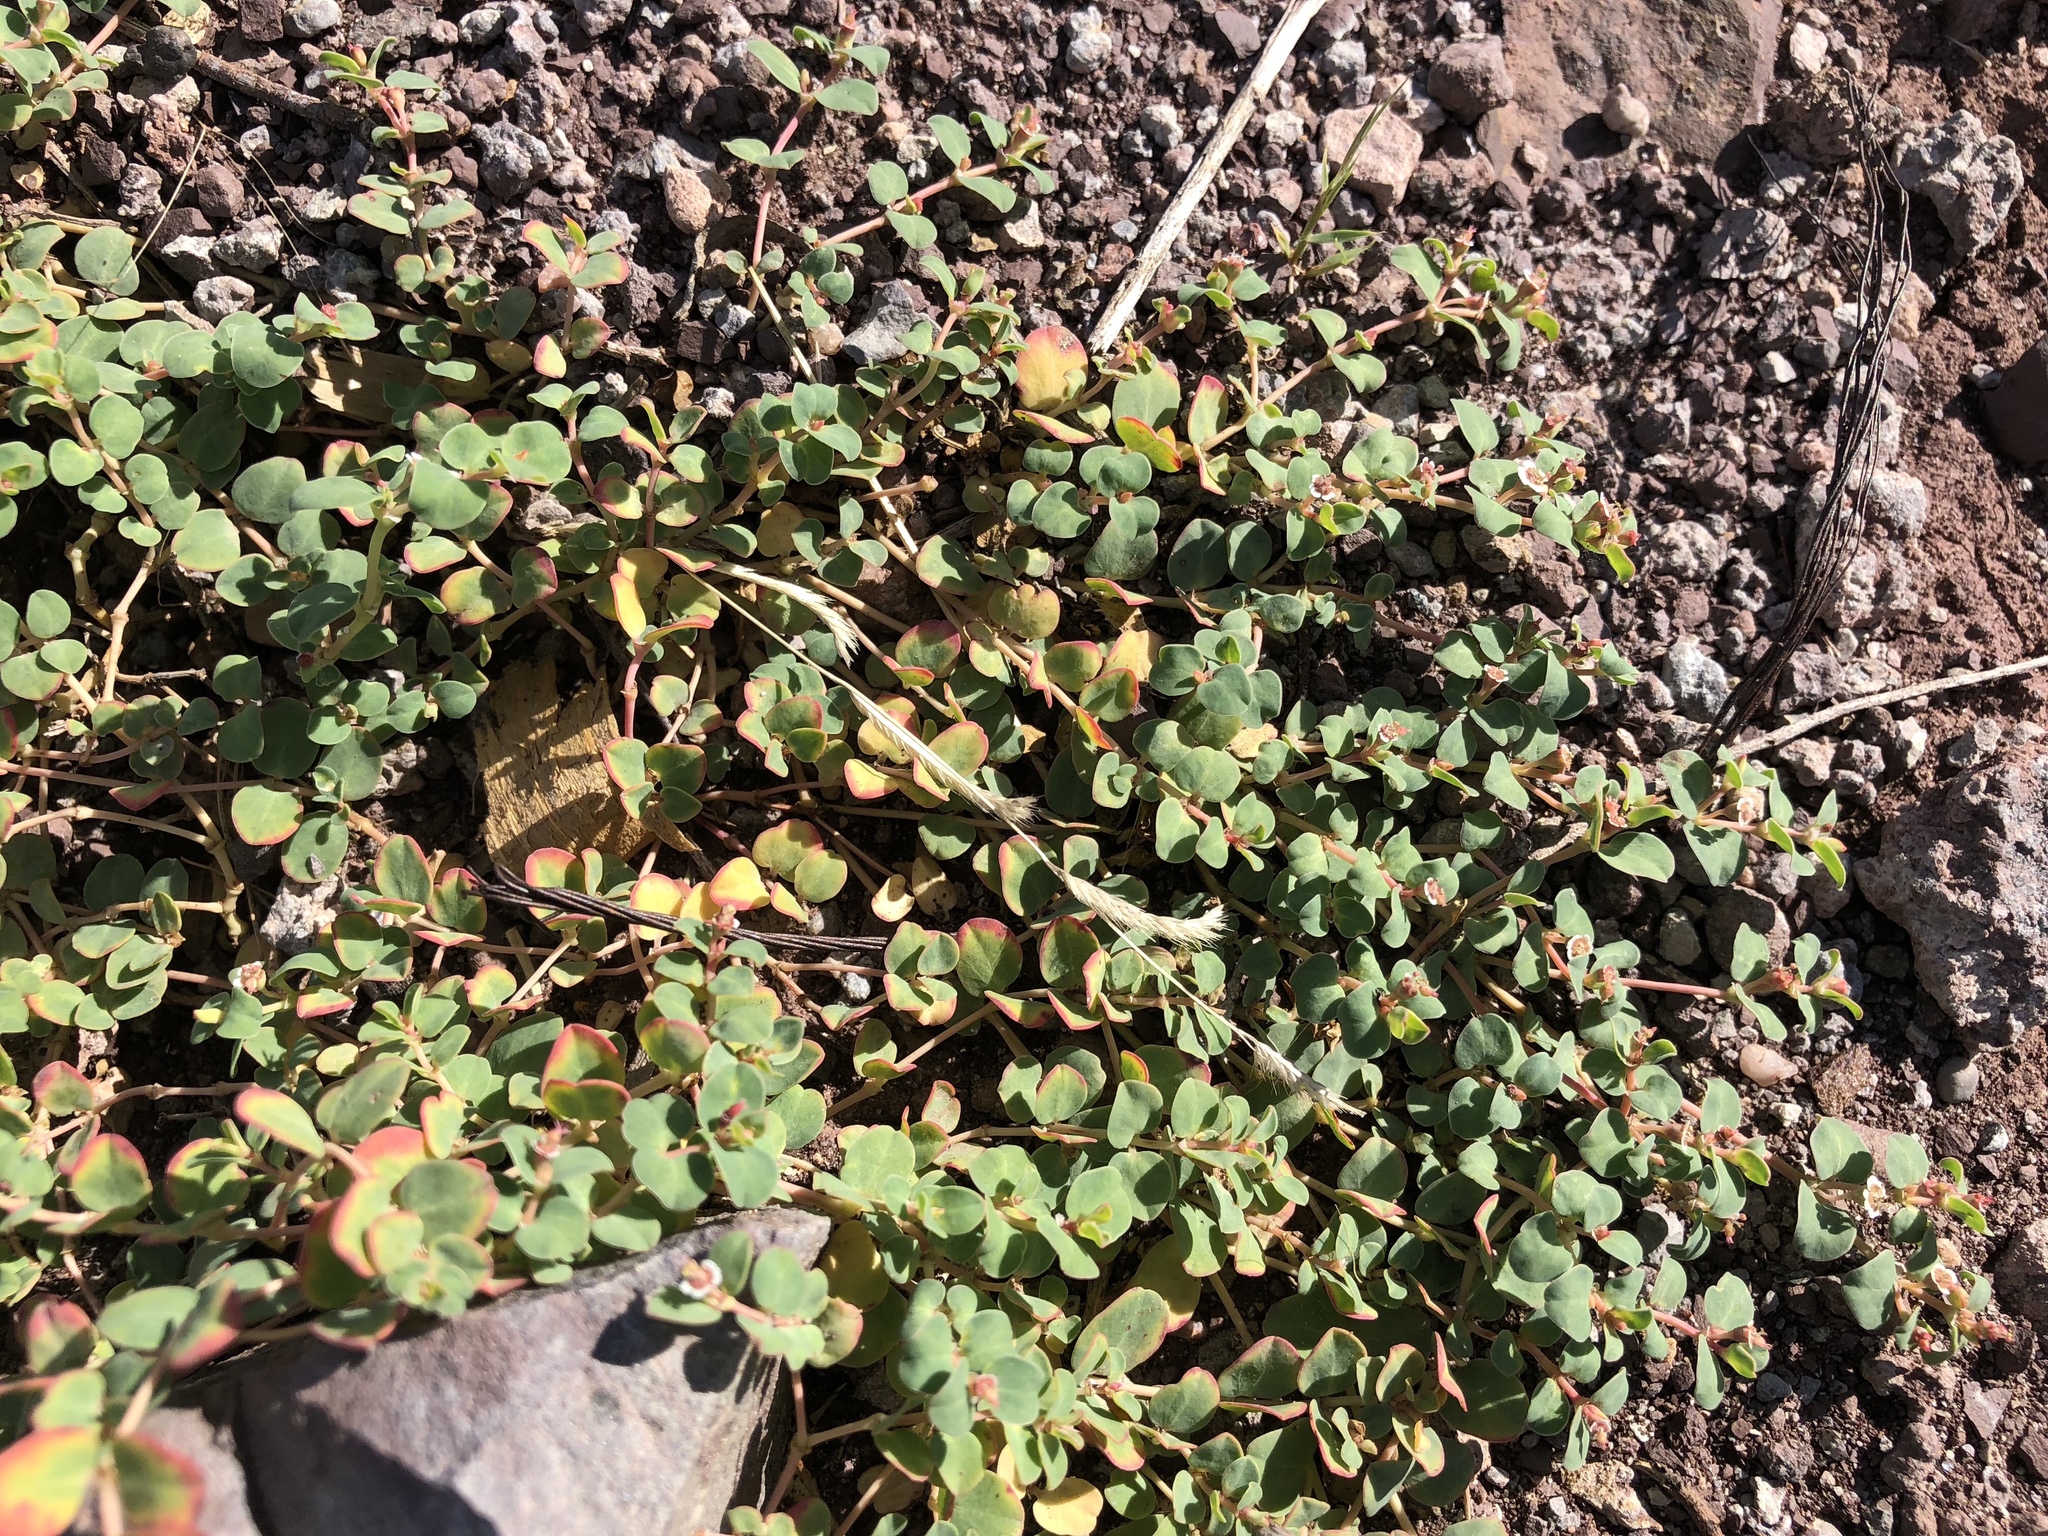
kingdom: Plantae
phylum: Tracheophyta
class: Magnoliopsida
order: Malpighiales
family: Euphorbiaceae
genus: Euphorbia
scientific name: Euphorbia albomarginata
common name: Whitemargin sandmat
